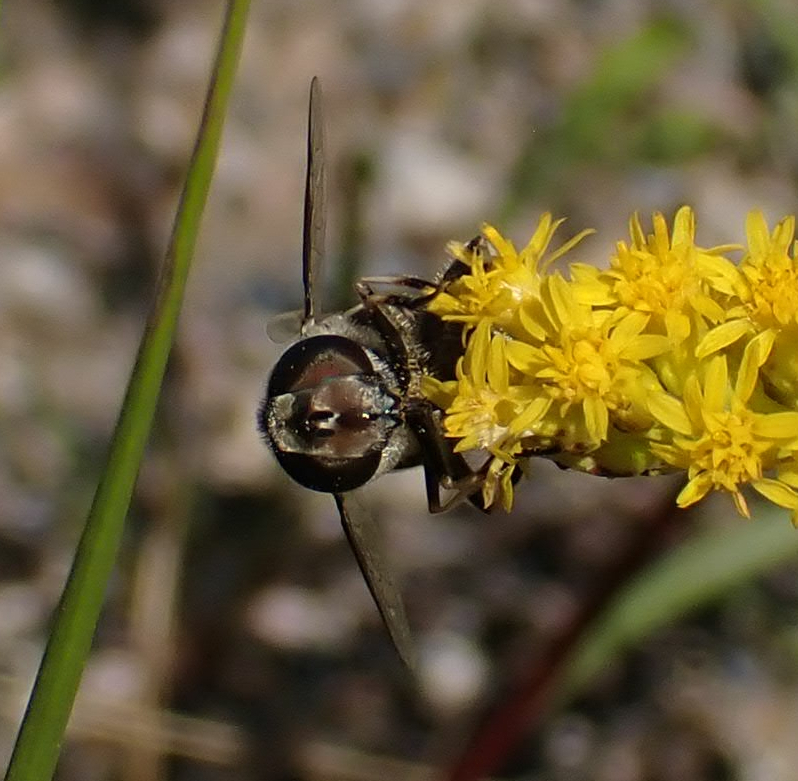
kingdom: Animalia
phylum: Arthropoda
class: Insecta
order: Diptera
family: Syrphidae
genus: Eristalis
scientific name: Eristalis dimidiata
